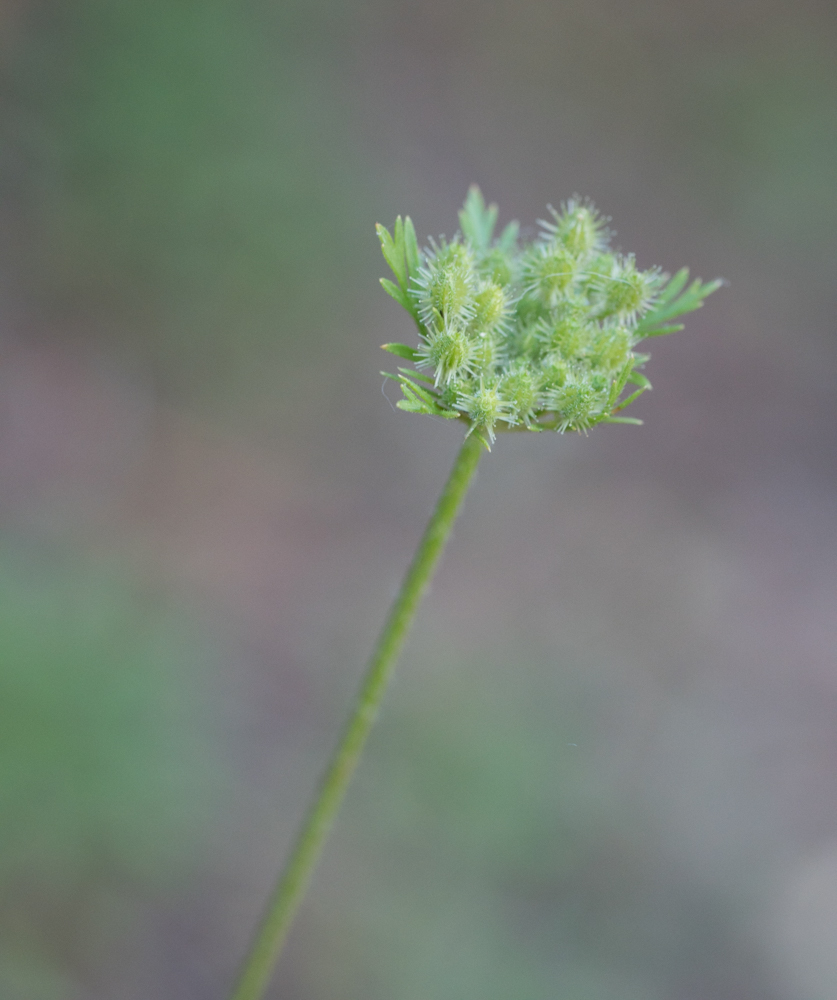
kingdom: Plantae
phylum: Tracheophyta
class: Magnoliopsida
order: Apiales
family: Apiaceae
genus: Daucus
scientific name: Daucus pusillus
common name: Southwest wild carrot
